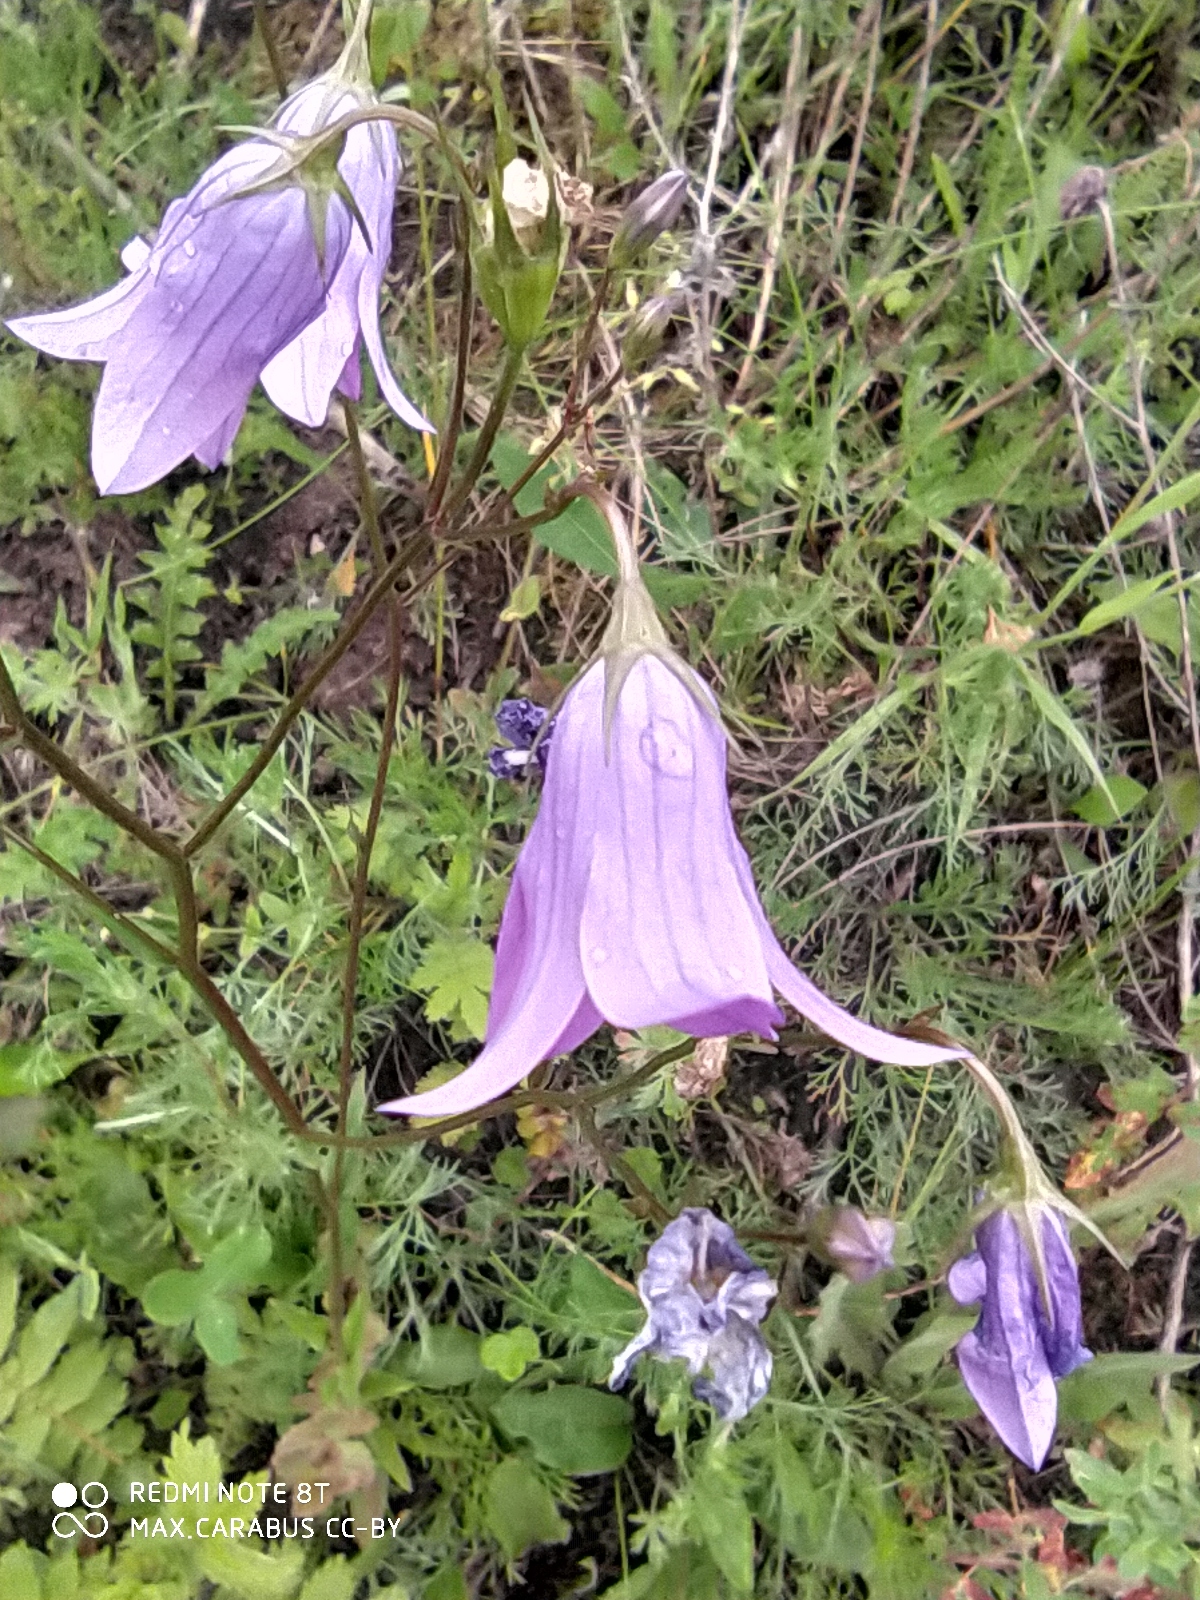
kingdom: Plantae
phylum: Tracheophyta
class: Magnoliopsida
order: Asterales
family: Campanulaceae
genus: Campanula
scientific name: Campanula patula
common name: Spreading bellflower
